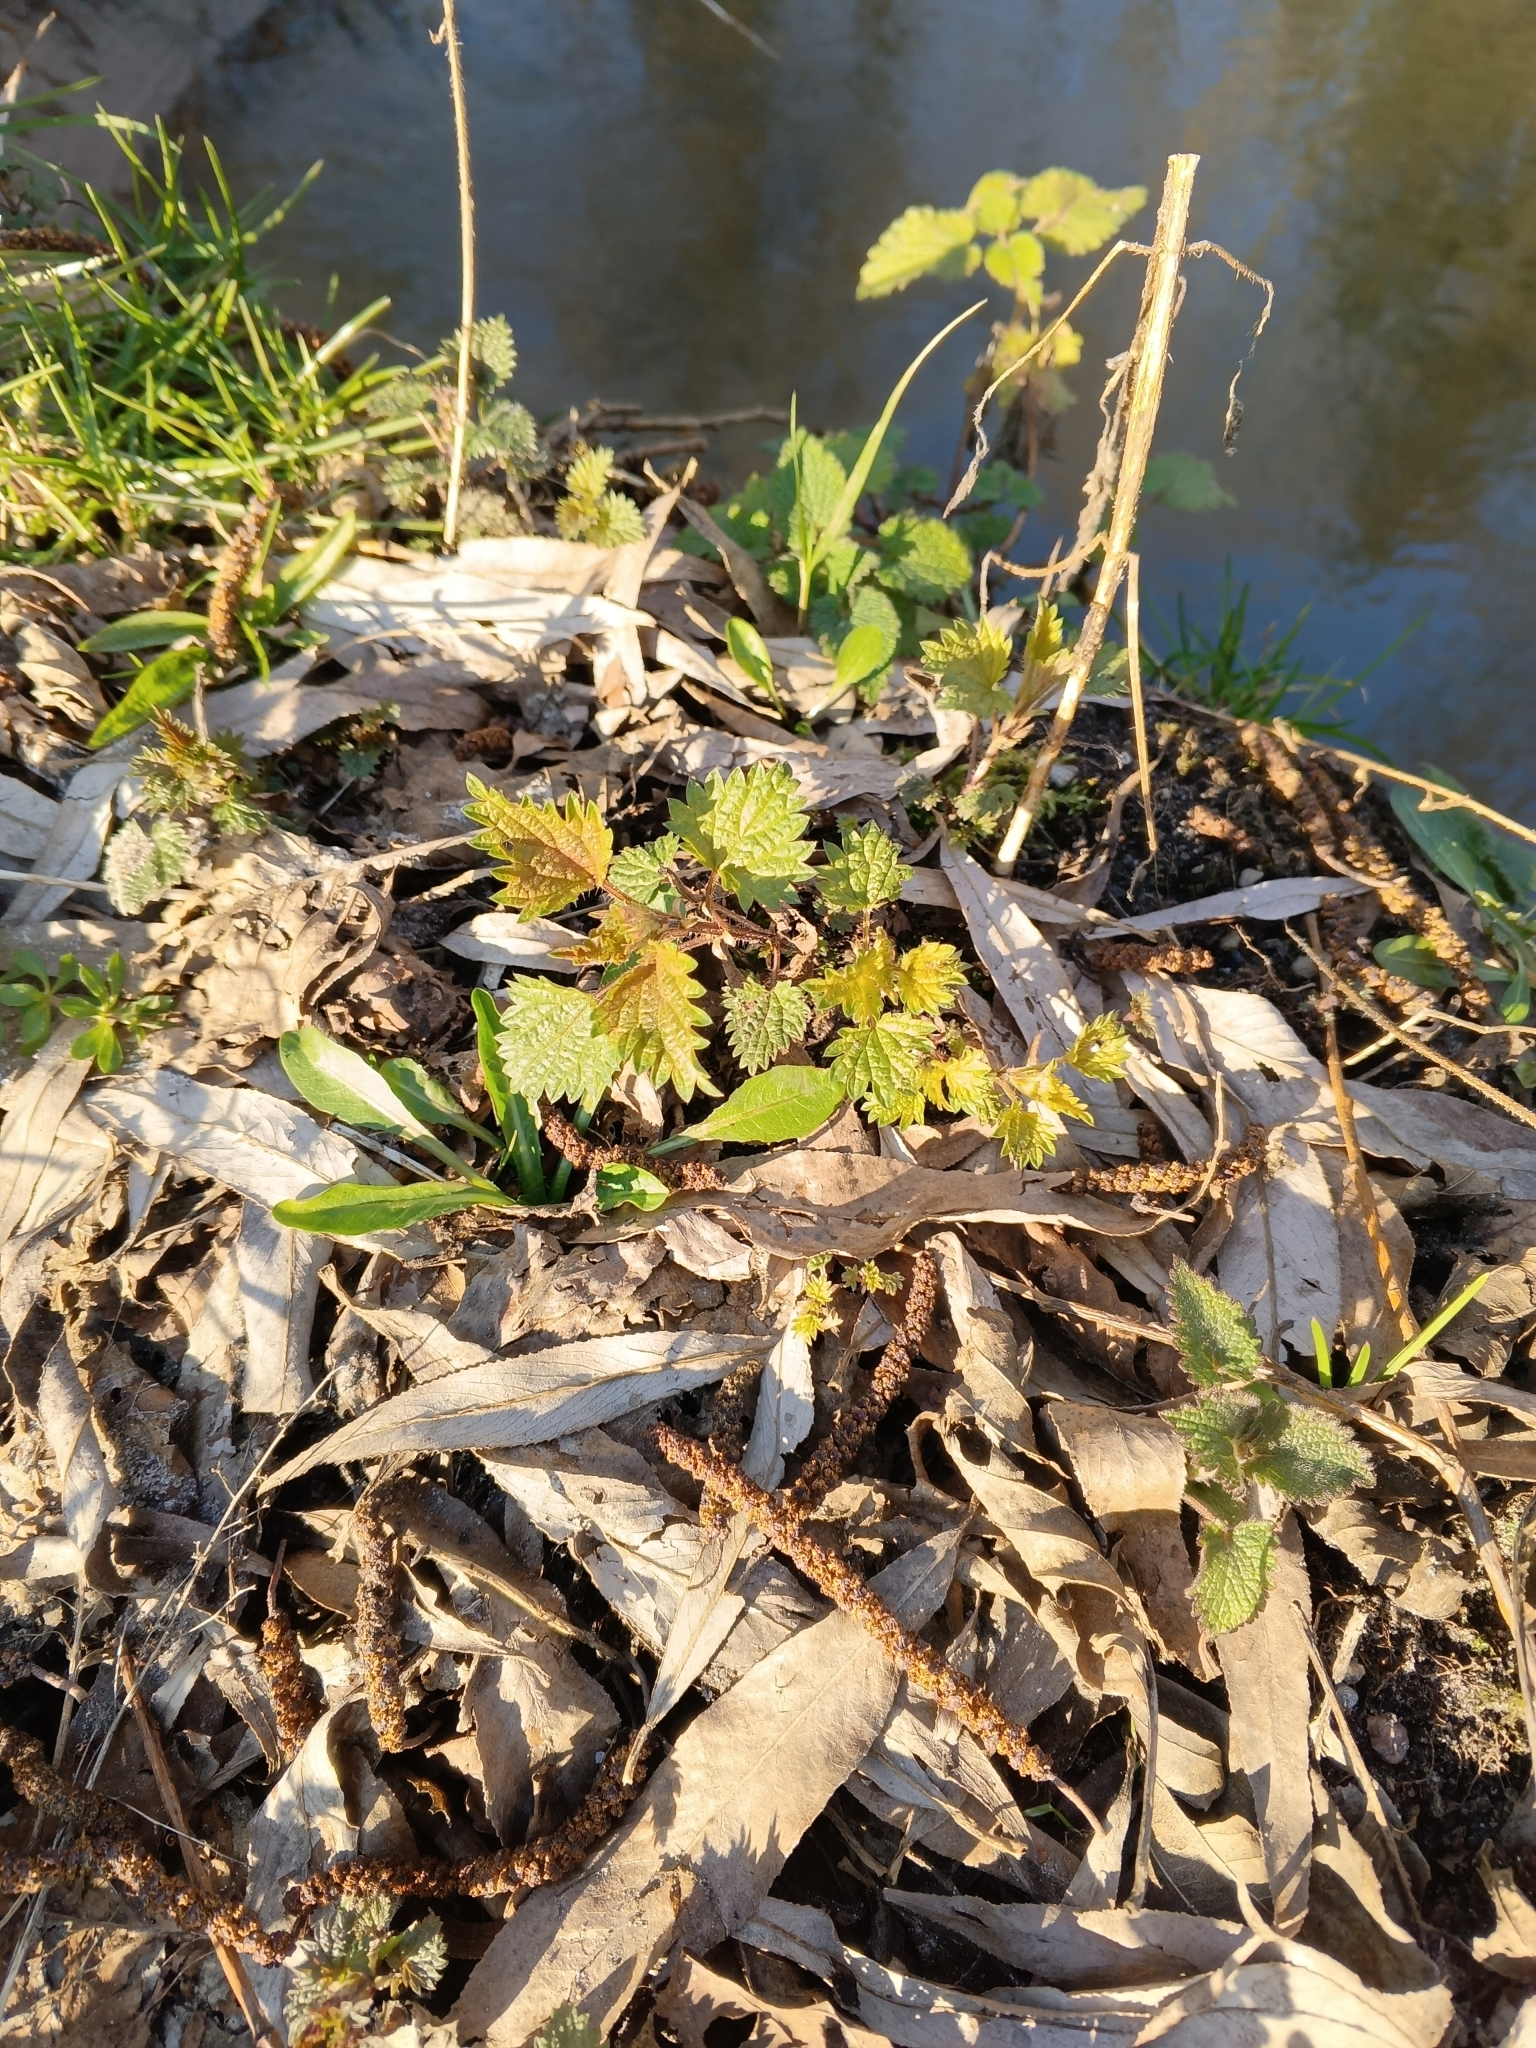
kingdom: Plantae
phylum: Tracheophyta
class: Magnoliopsida
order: Rosales
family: Urticaceae
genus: Urtica
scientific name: Urtica dioica
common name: Common nettle
